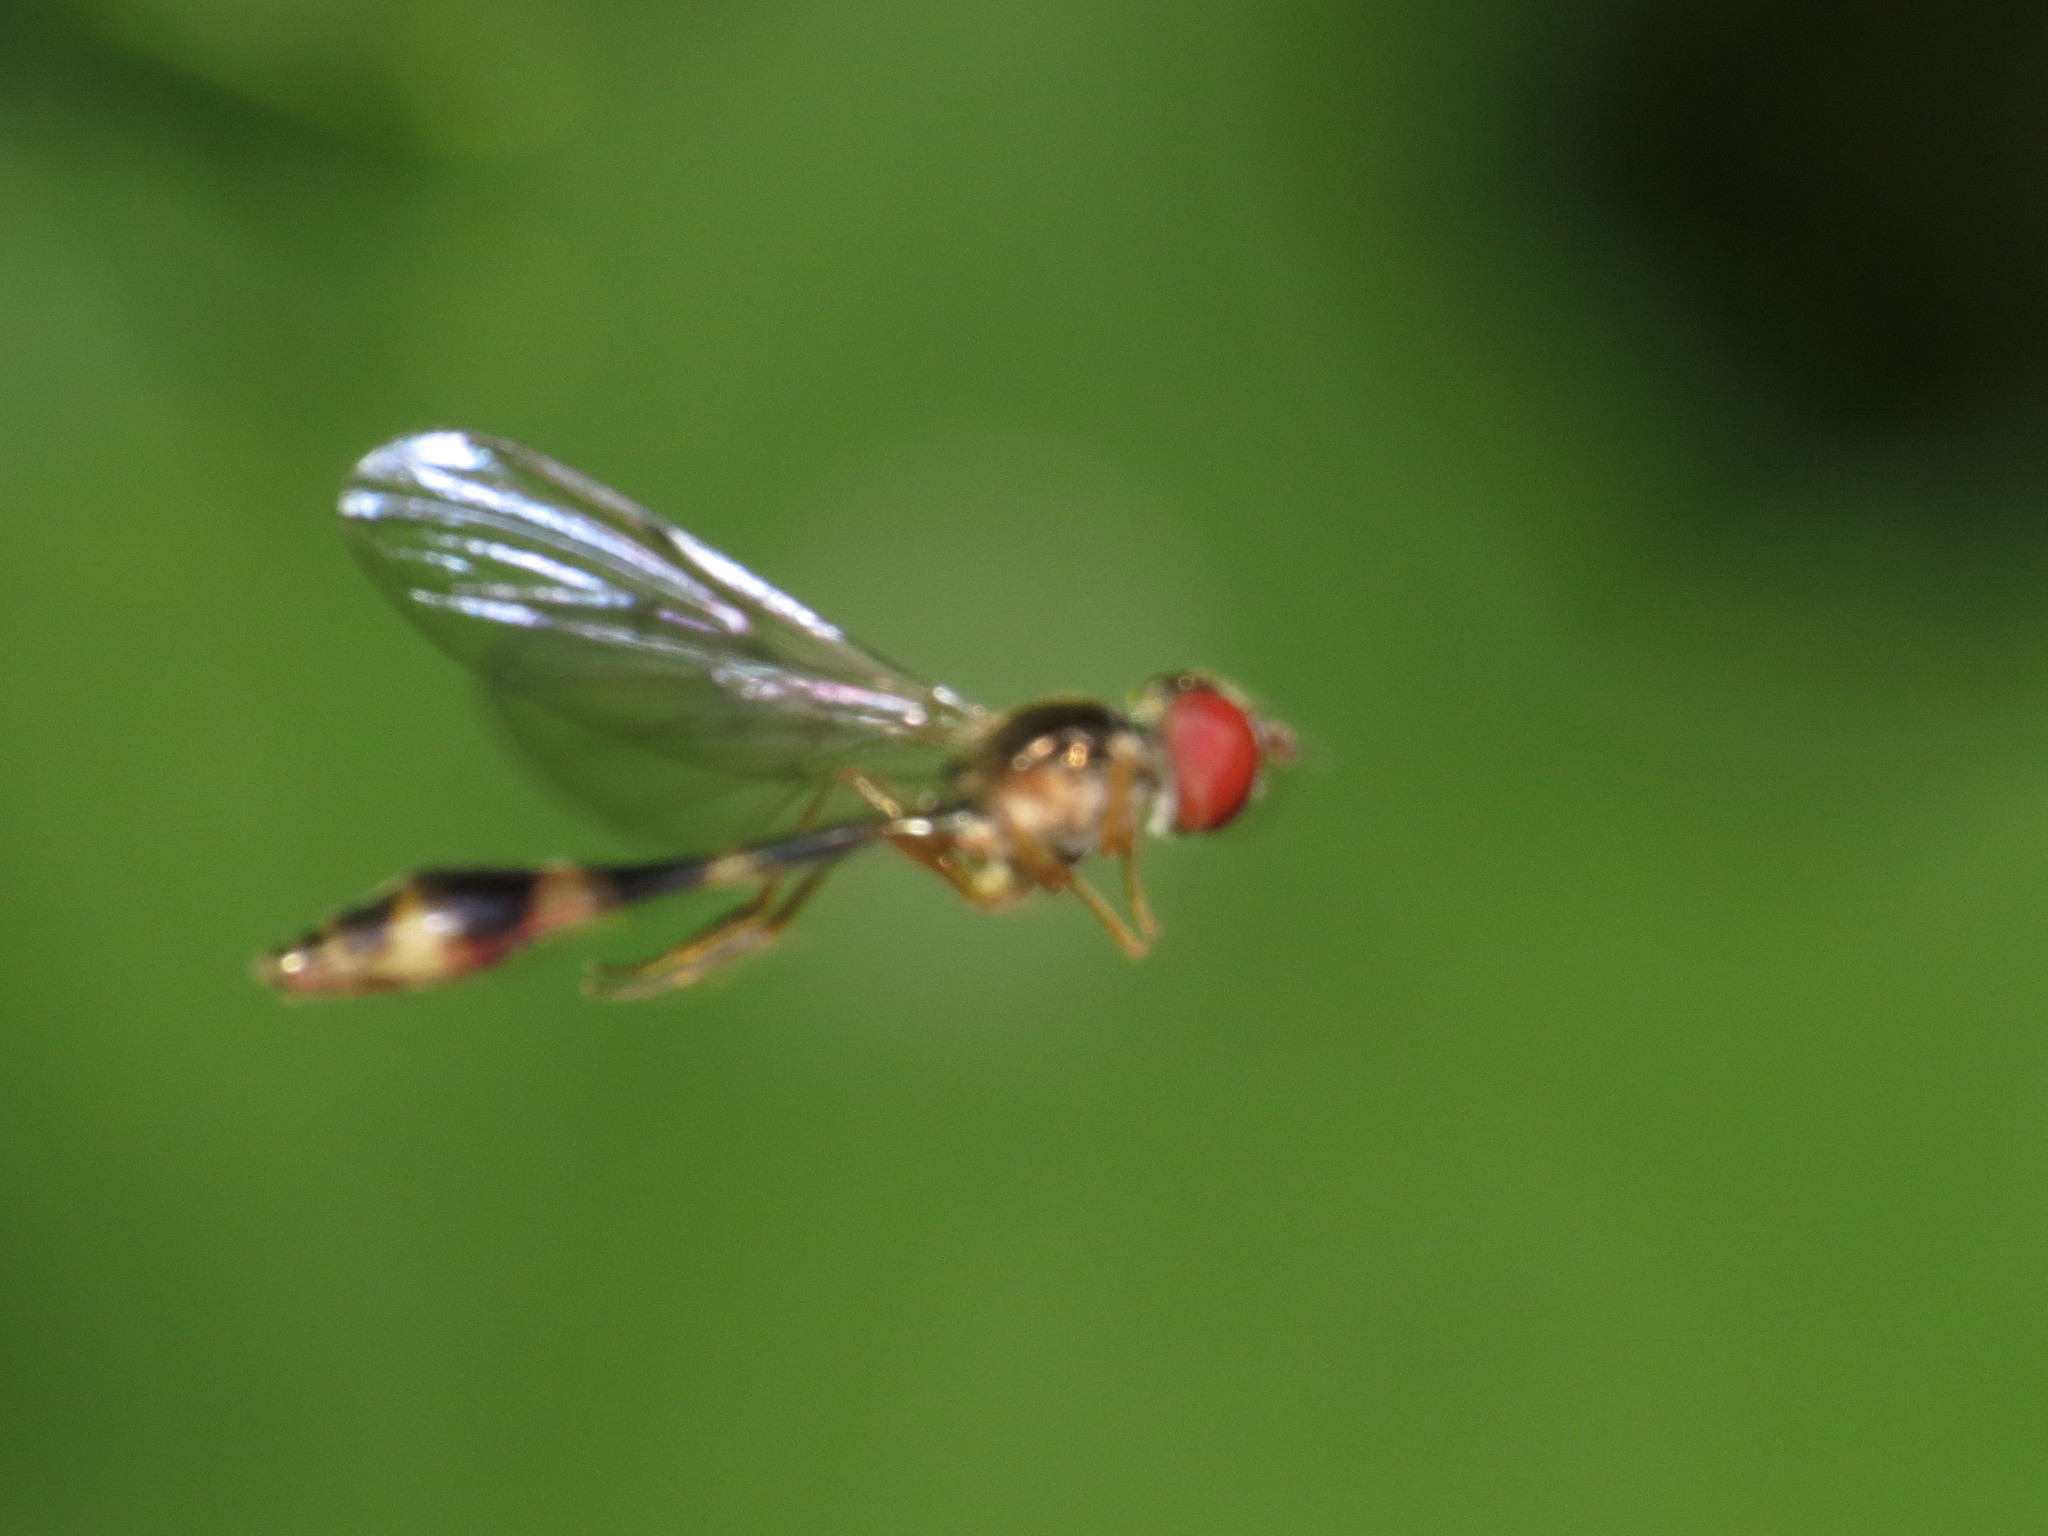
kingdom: Animalia
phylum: Arthropoda
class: Insecta
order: Diptera
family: Syrphidae
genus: Baccha
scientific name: Baccha elongata
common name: Common dainty
